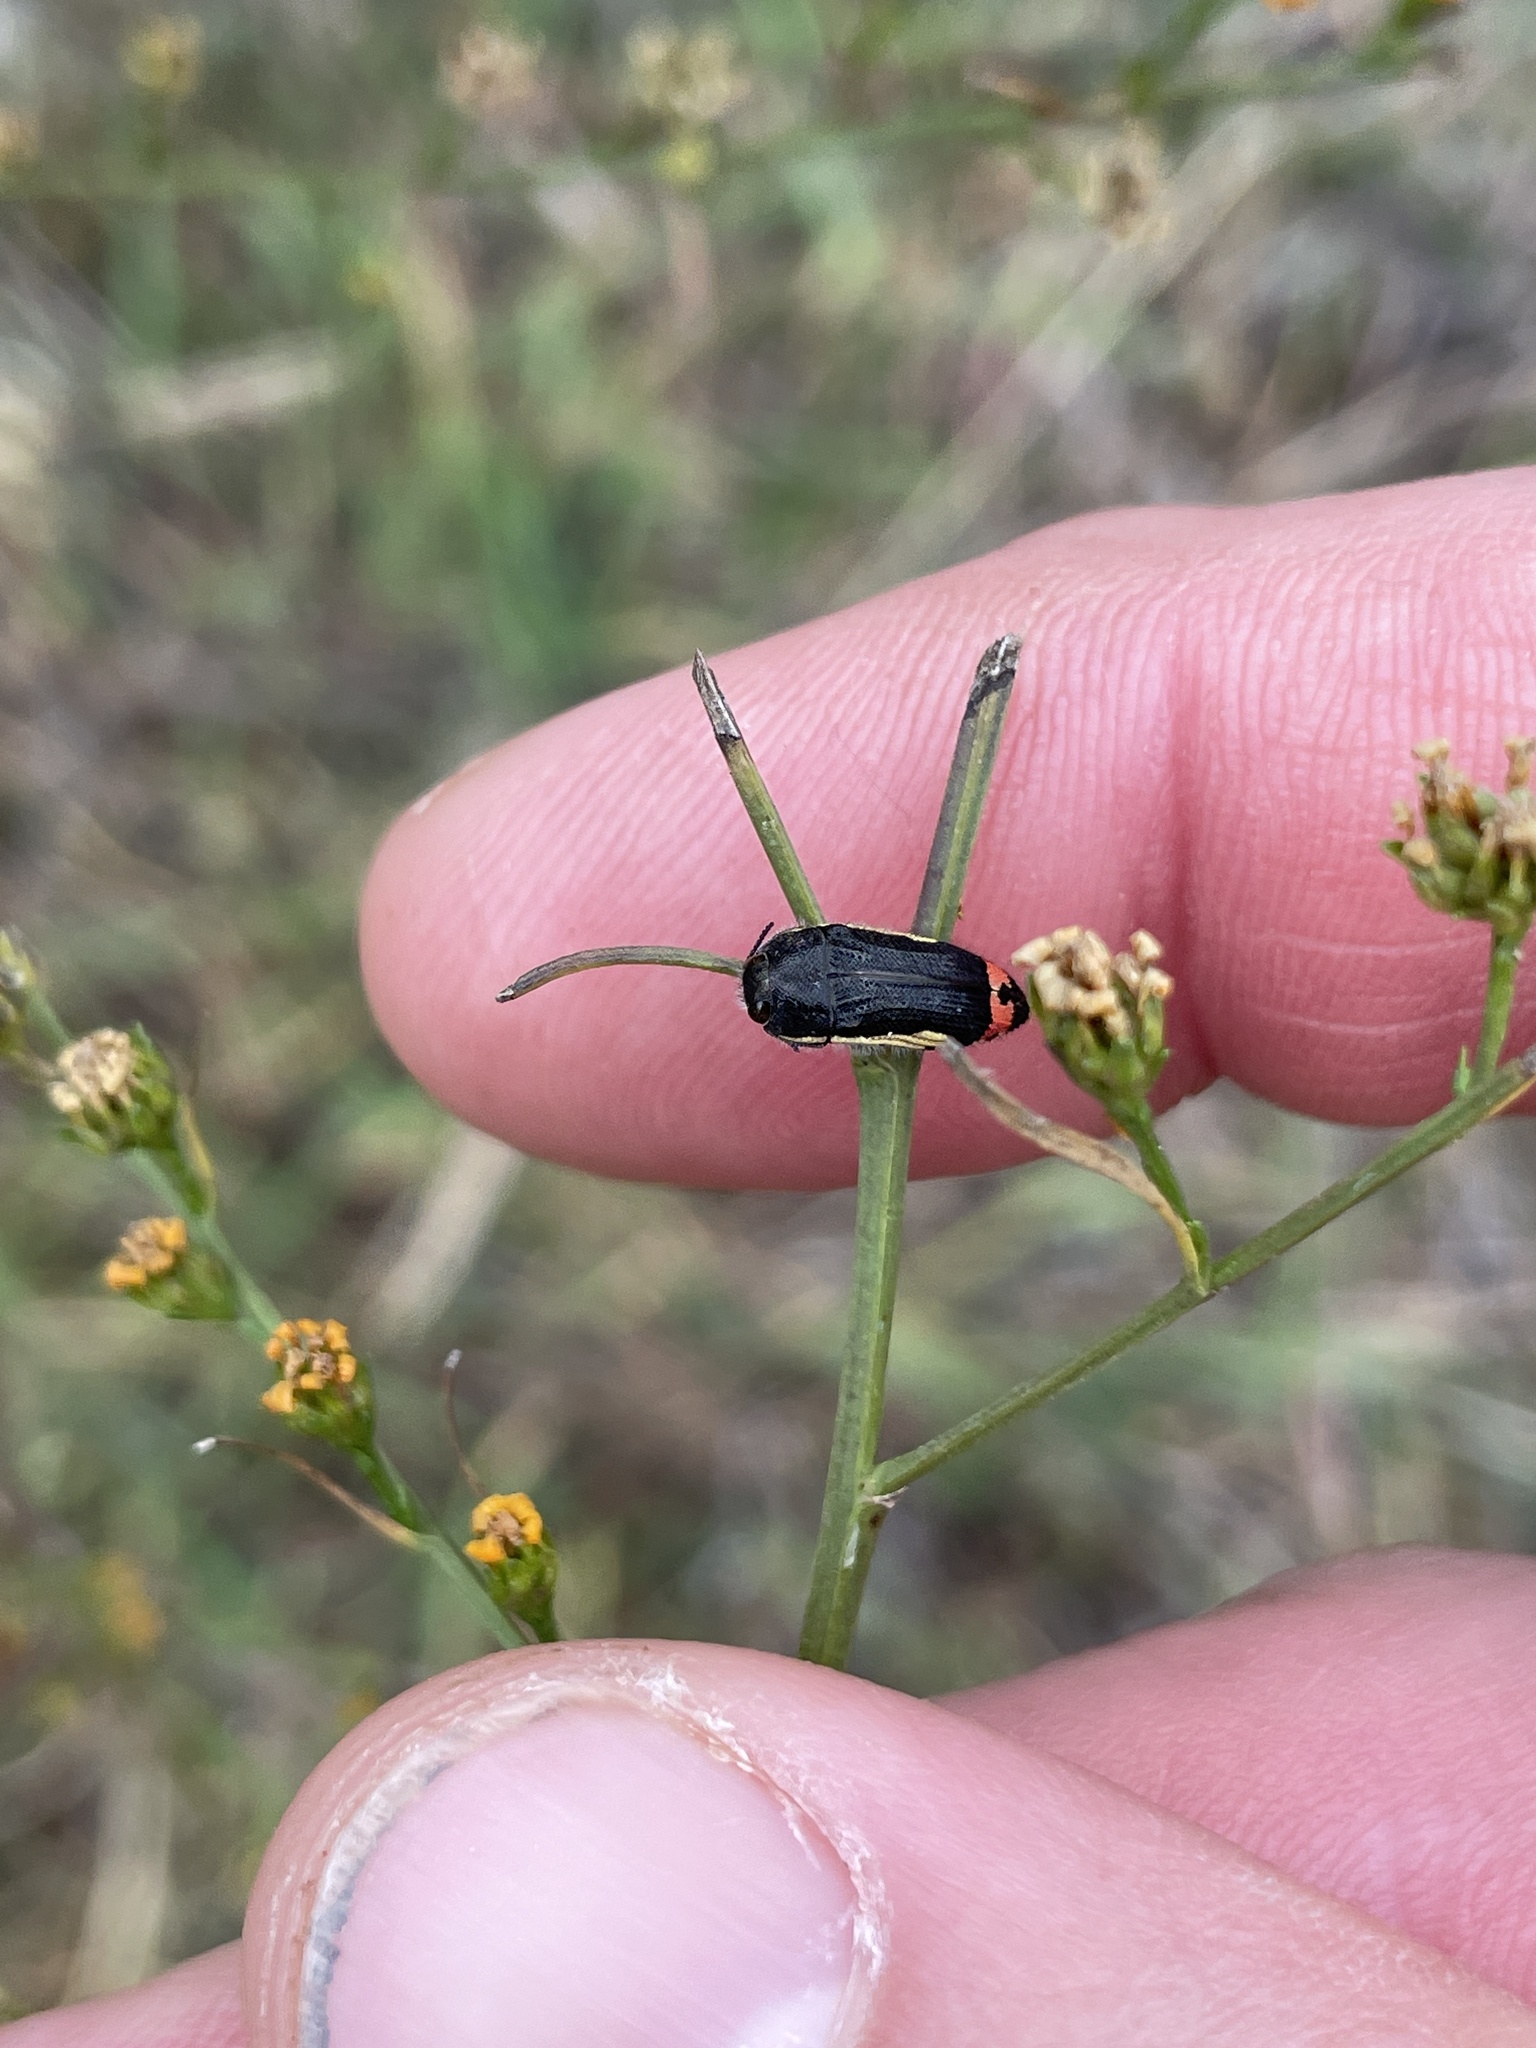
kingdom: Animalia
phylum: Arthropoda
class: Insecta
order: Coleoptera
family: Buprestidae
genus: Acmaeodera
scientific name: Acmaeodera flavomarginata
